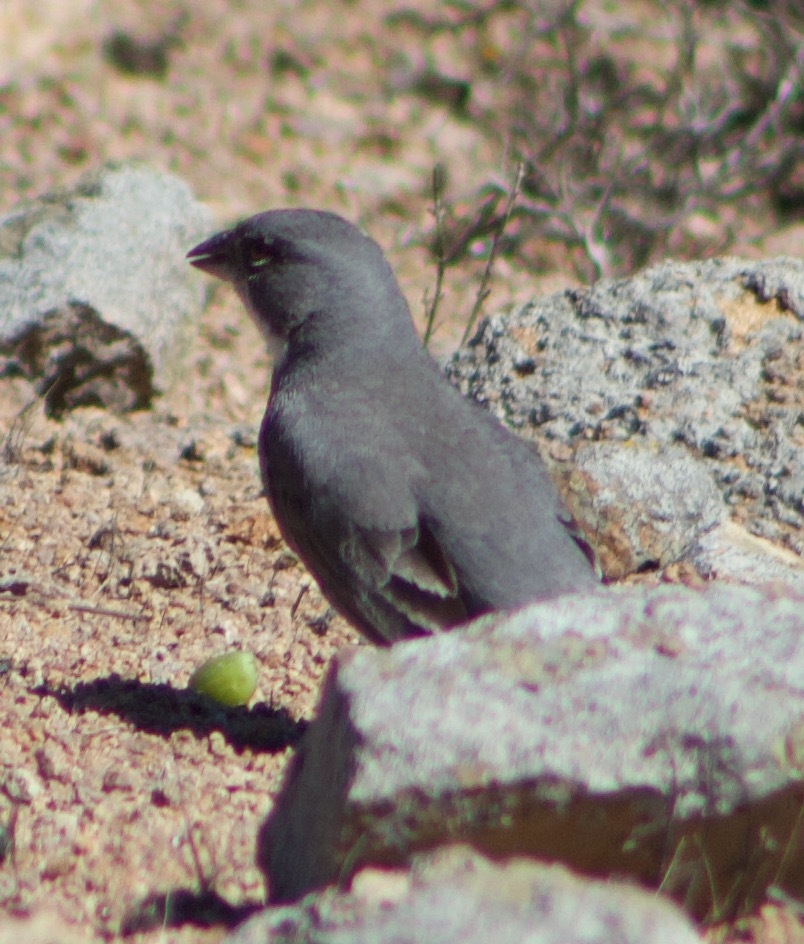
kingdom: Animalia
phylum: Chordata
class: Aves
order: Passeriformes
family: Thraupidae
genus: Diuca
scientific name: Diuca diuca
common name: Common diuca finch
